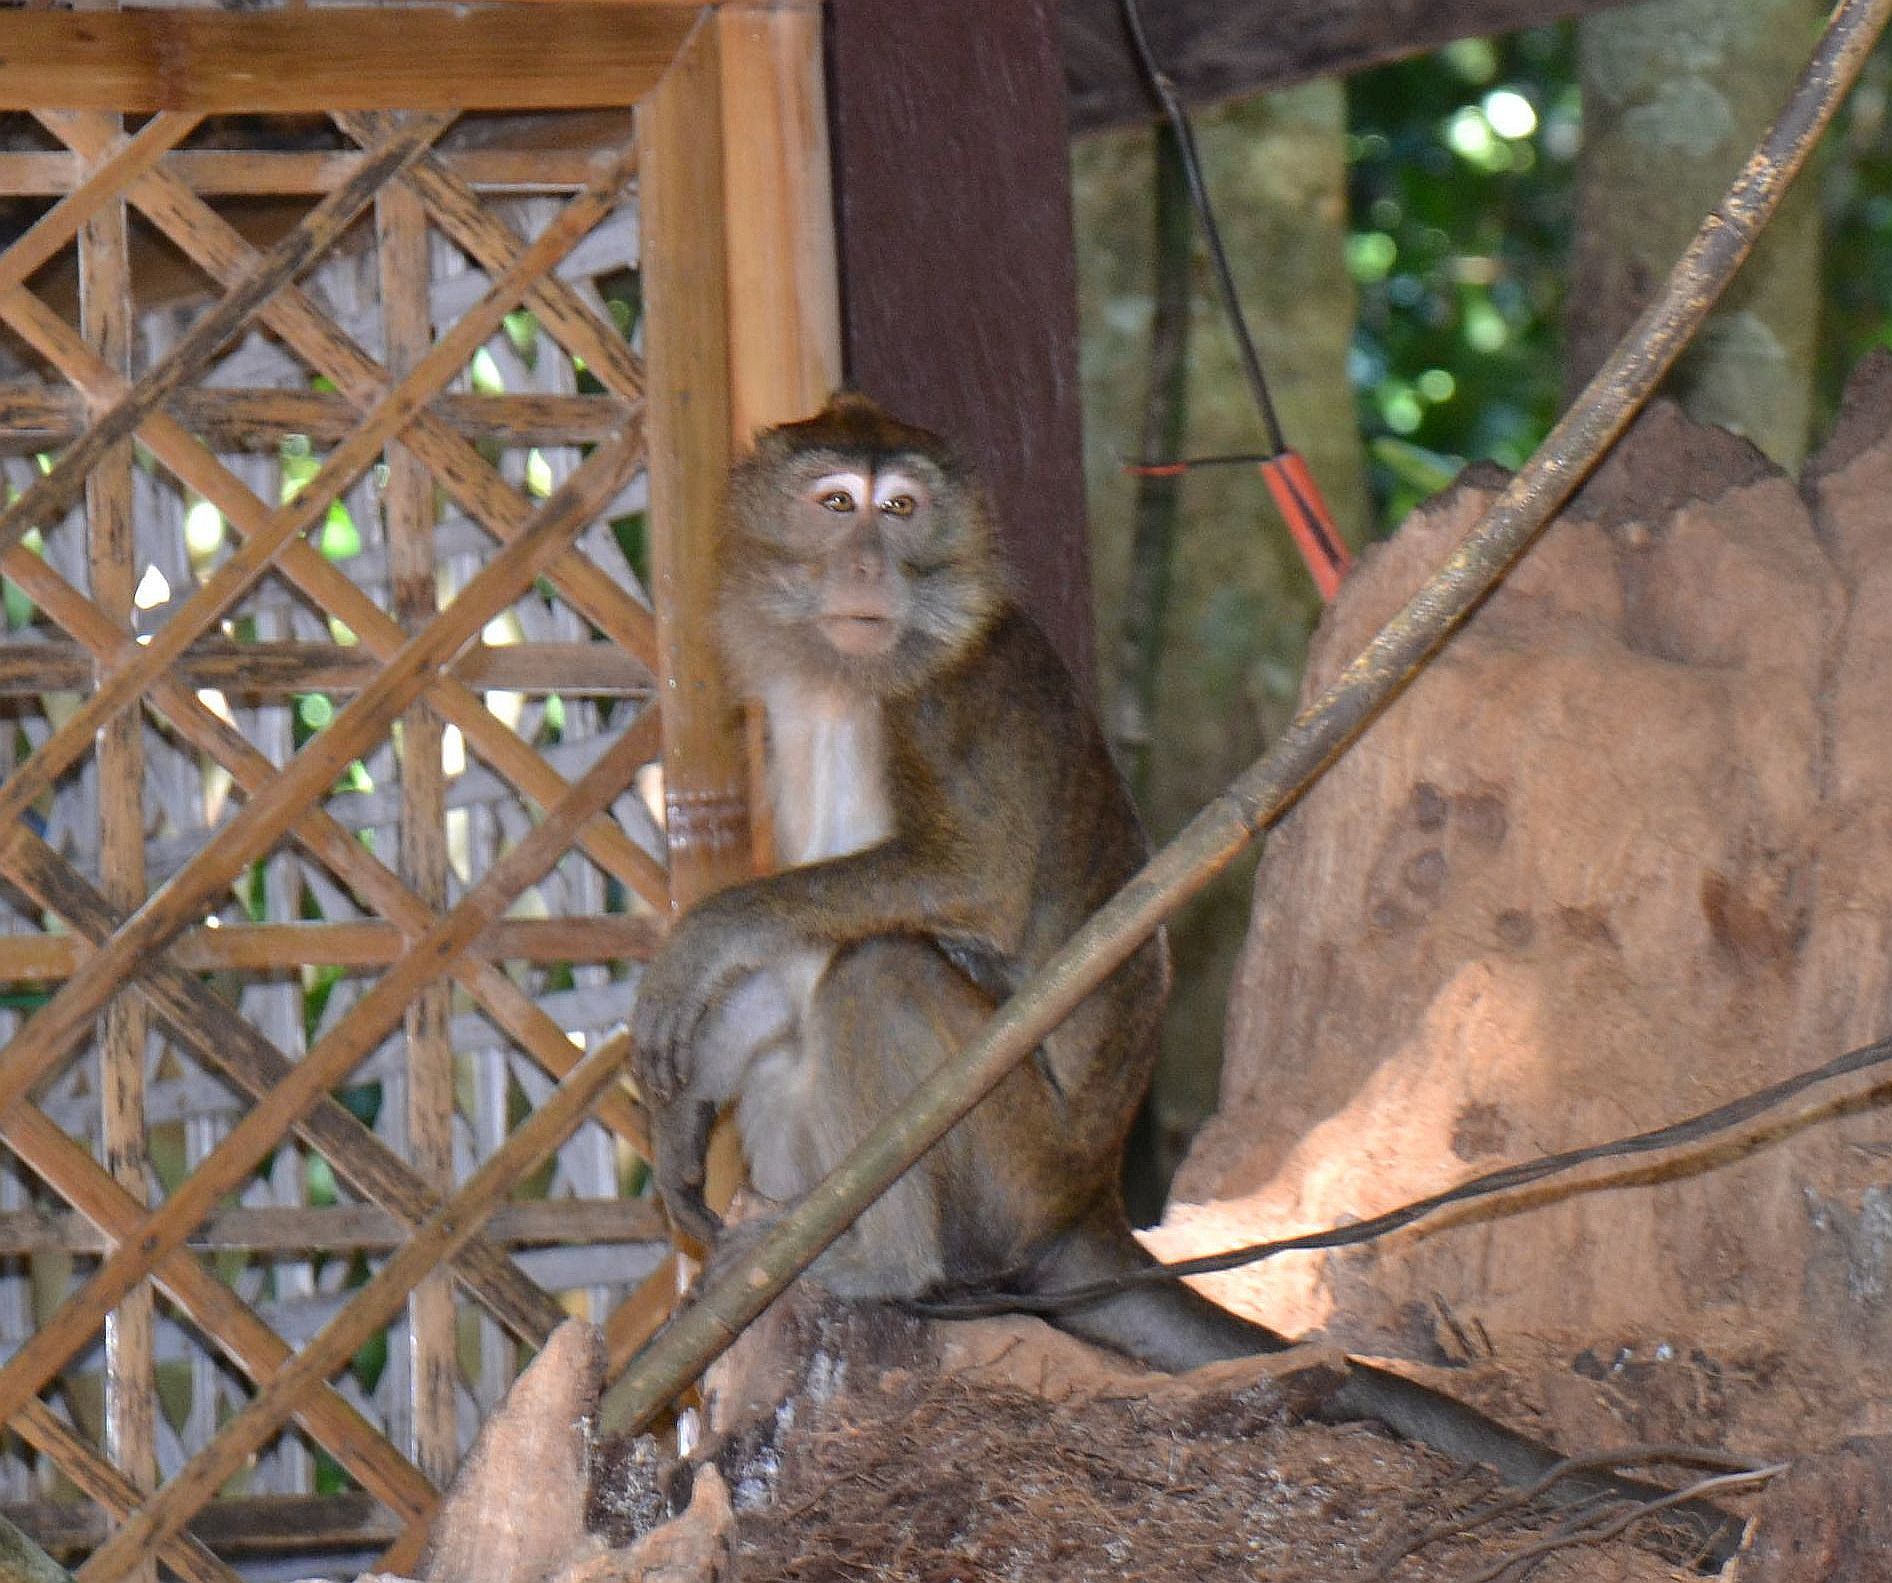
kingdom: Animalia
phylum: Chordata
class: Mammalia
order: Primates
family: Cercopithecidae
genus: Macaca
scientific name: Macaca fascicularis
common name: Crab-eating macaque
